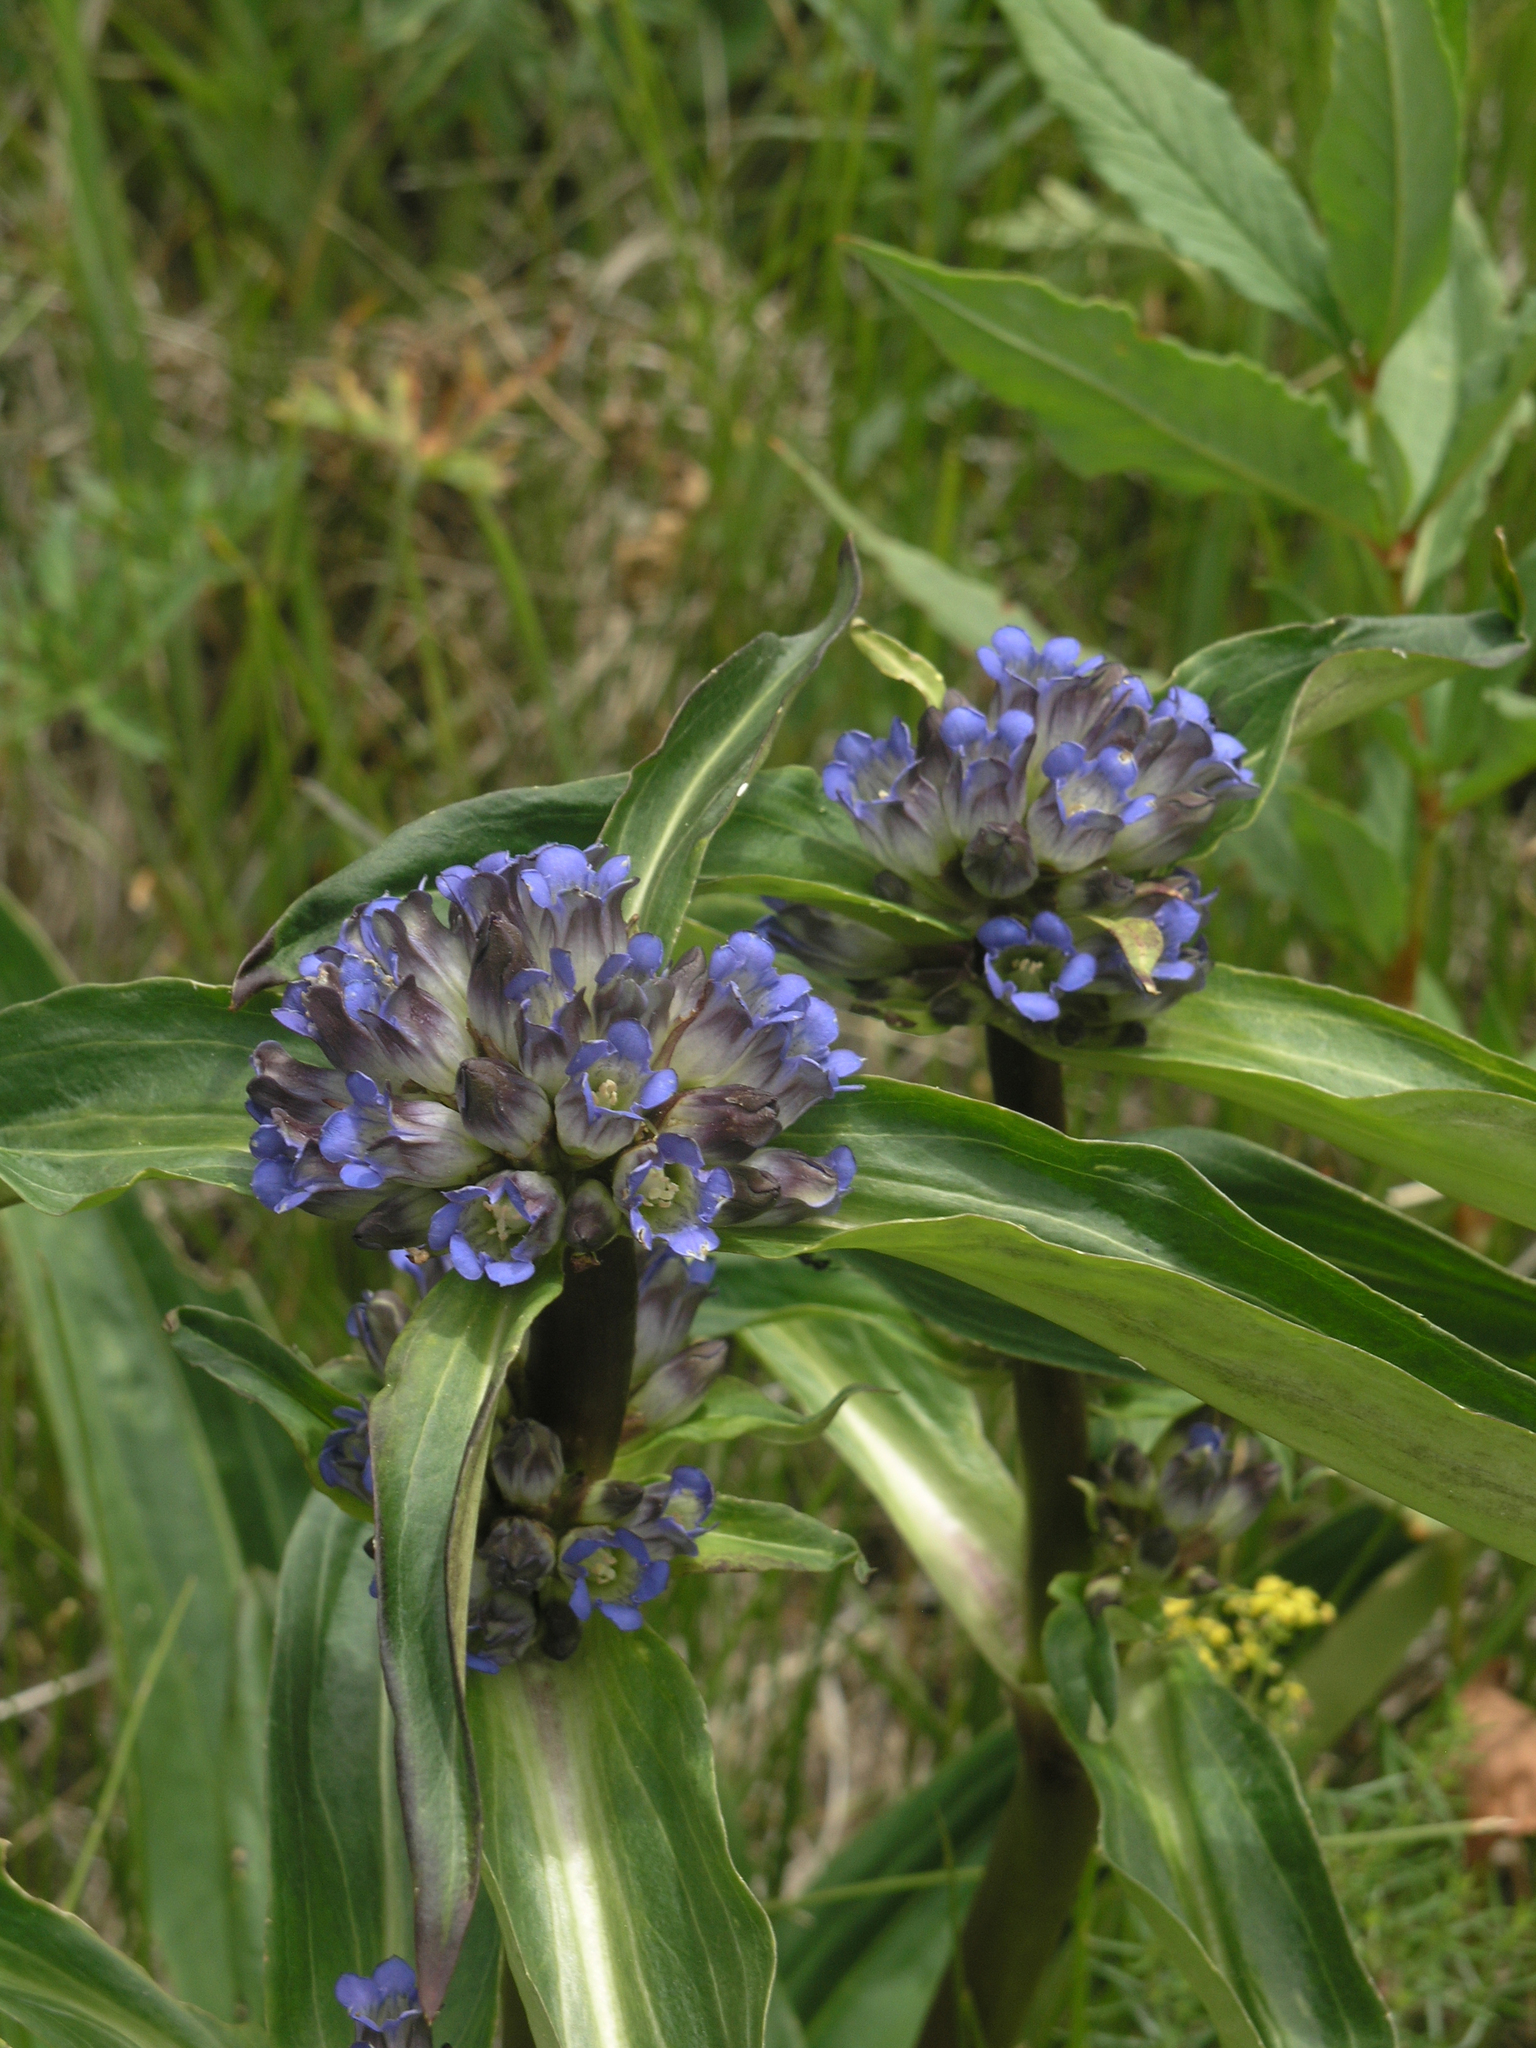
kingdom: Plantae
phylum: Tracheophyta
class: Magnoliopsida
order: Gentianales
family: Gentianaceae
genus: Gentiana
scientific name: Gentiana macrophylla
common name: Large-leaf gentian
